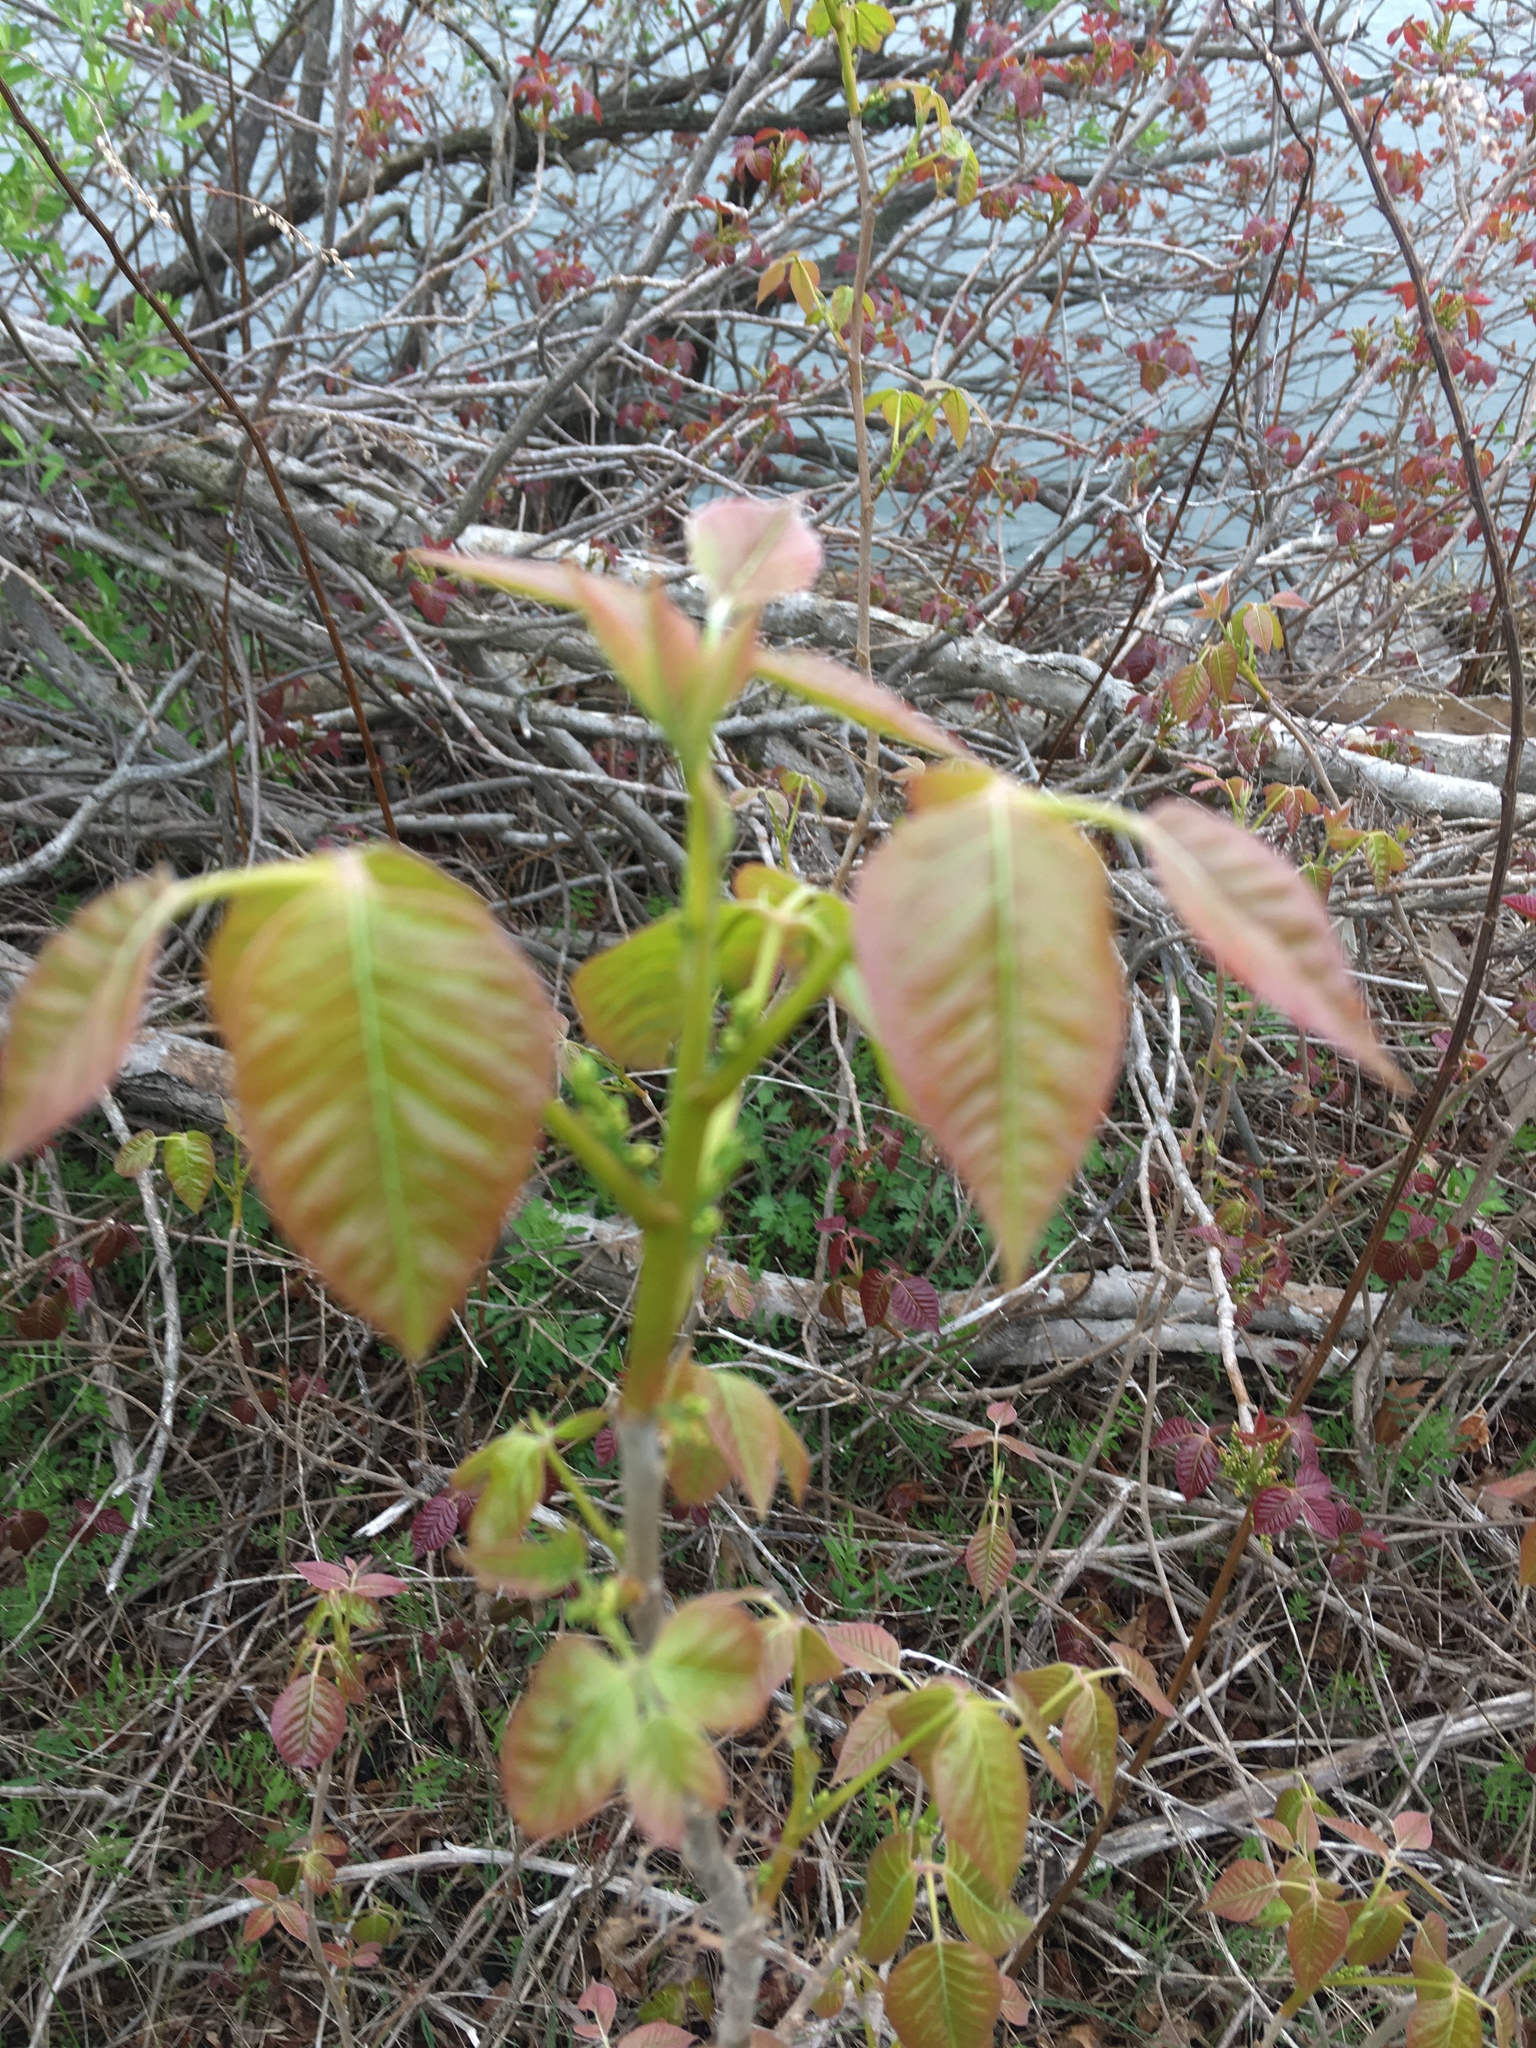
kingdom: Plantae
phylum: Tracheophyta
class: Magnoliopsida
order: Sapindales
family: Anacardiaceae
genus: Toxicodendron
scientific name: Toxicodendron radicans
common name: Poison ivy
